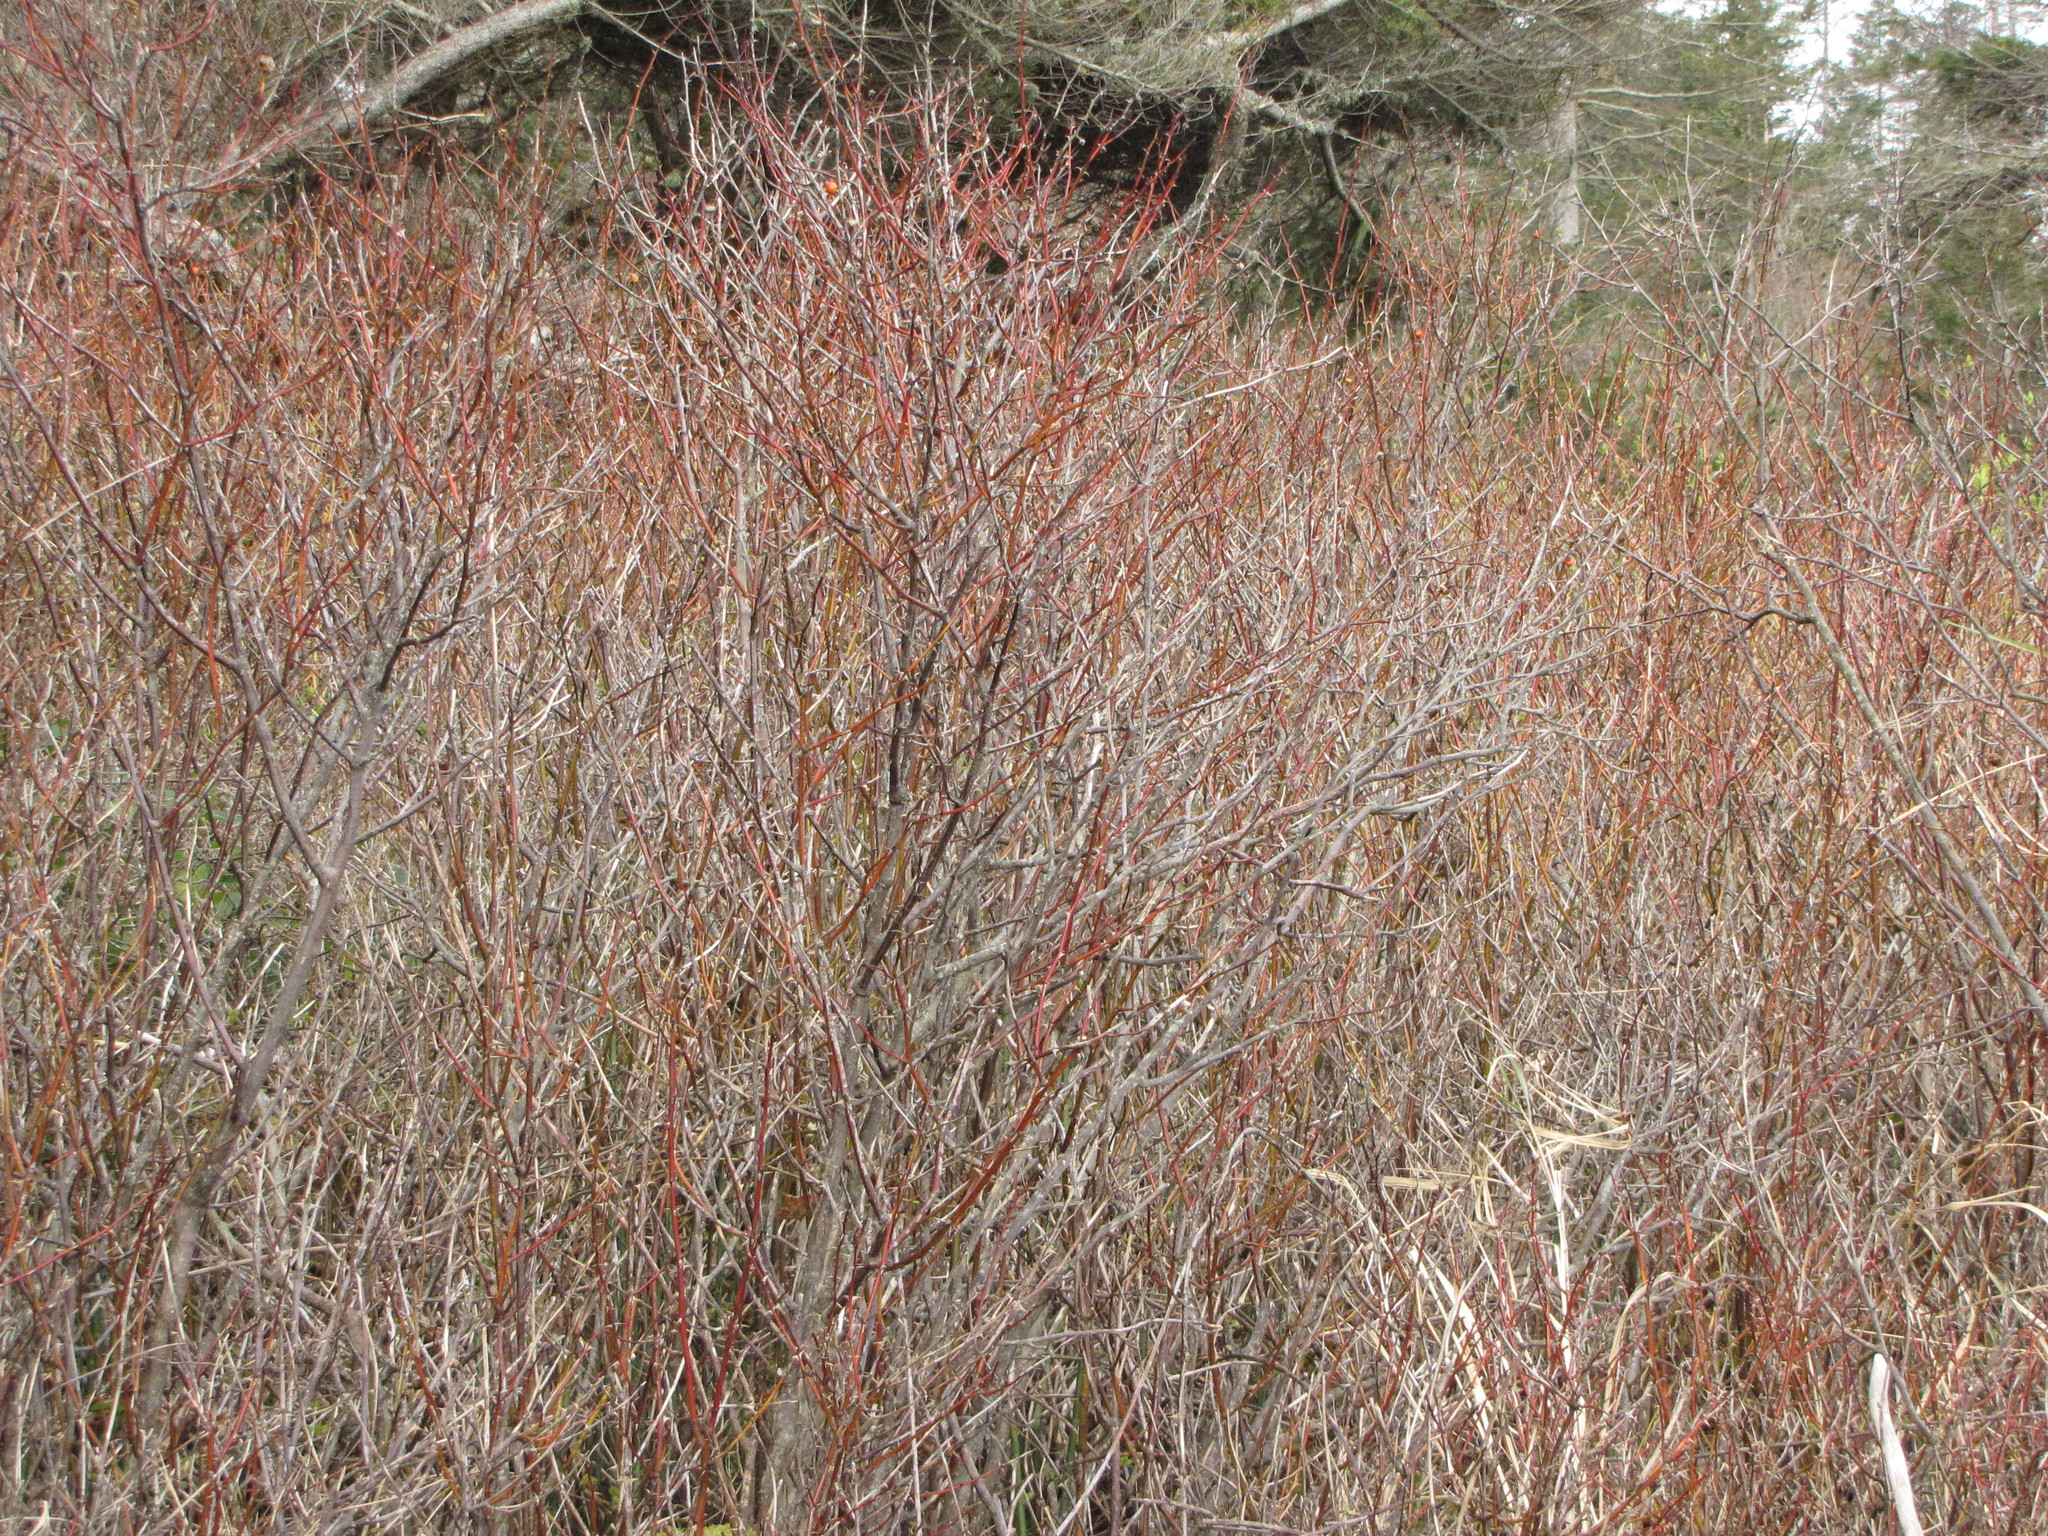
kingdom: Plantae
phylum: Tracheophyta
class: Magnoliopsida
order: Cornales
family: Cornaceae
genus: Cornus
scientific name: Cornus sericea
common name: Red-osier dogwood
